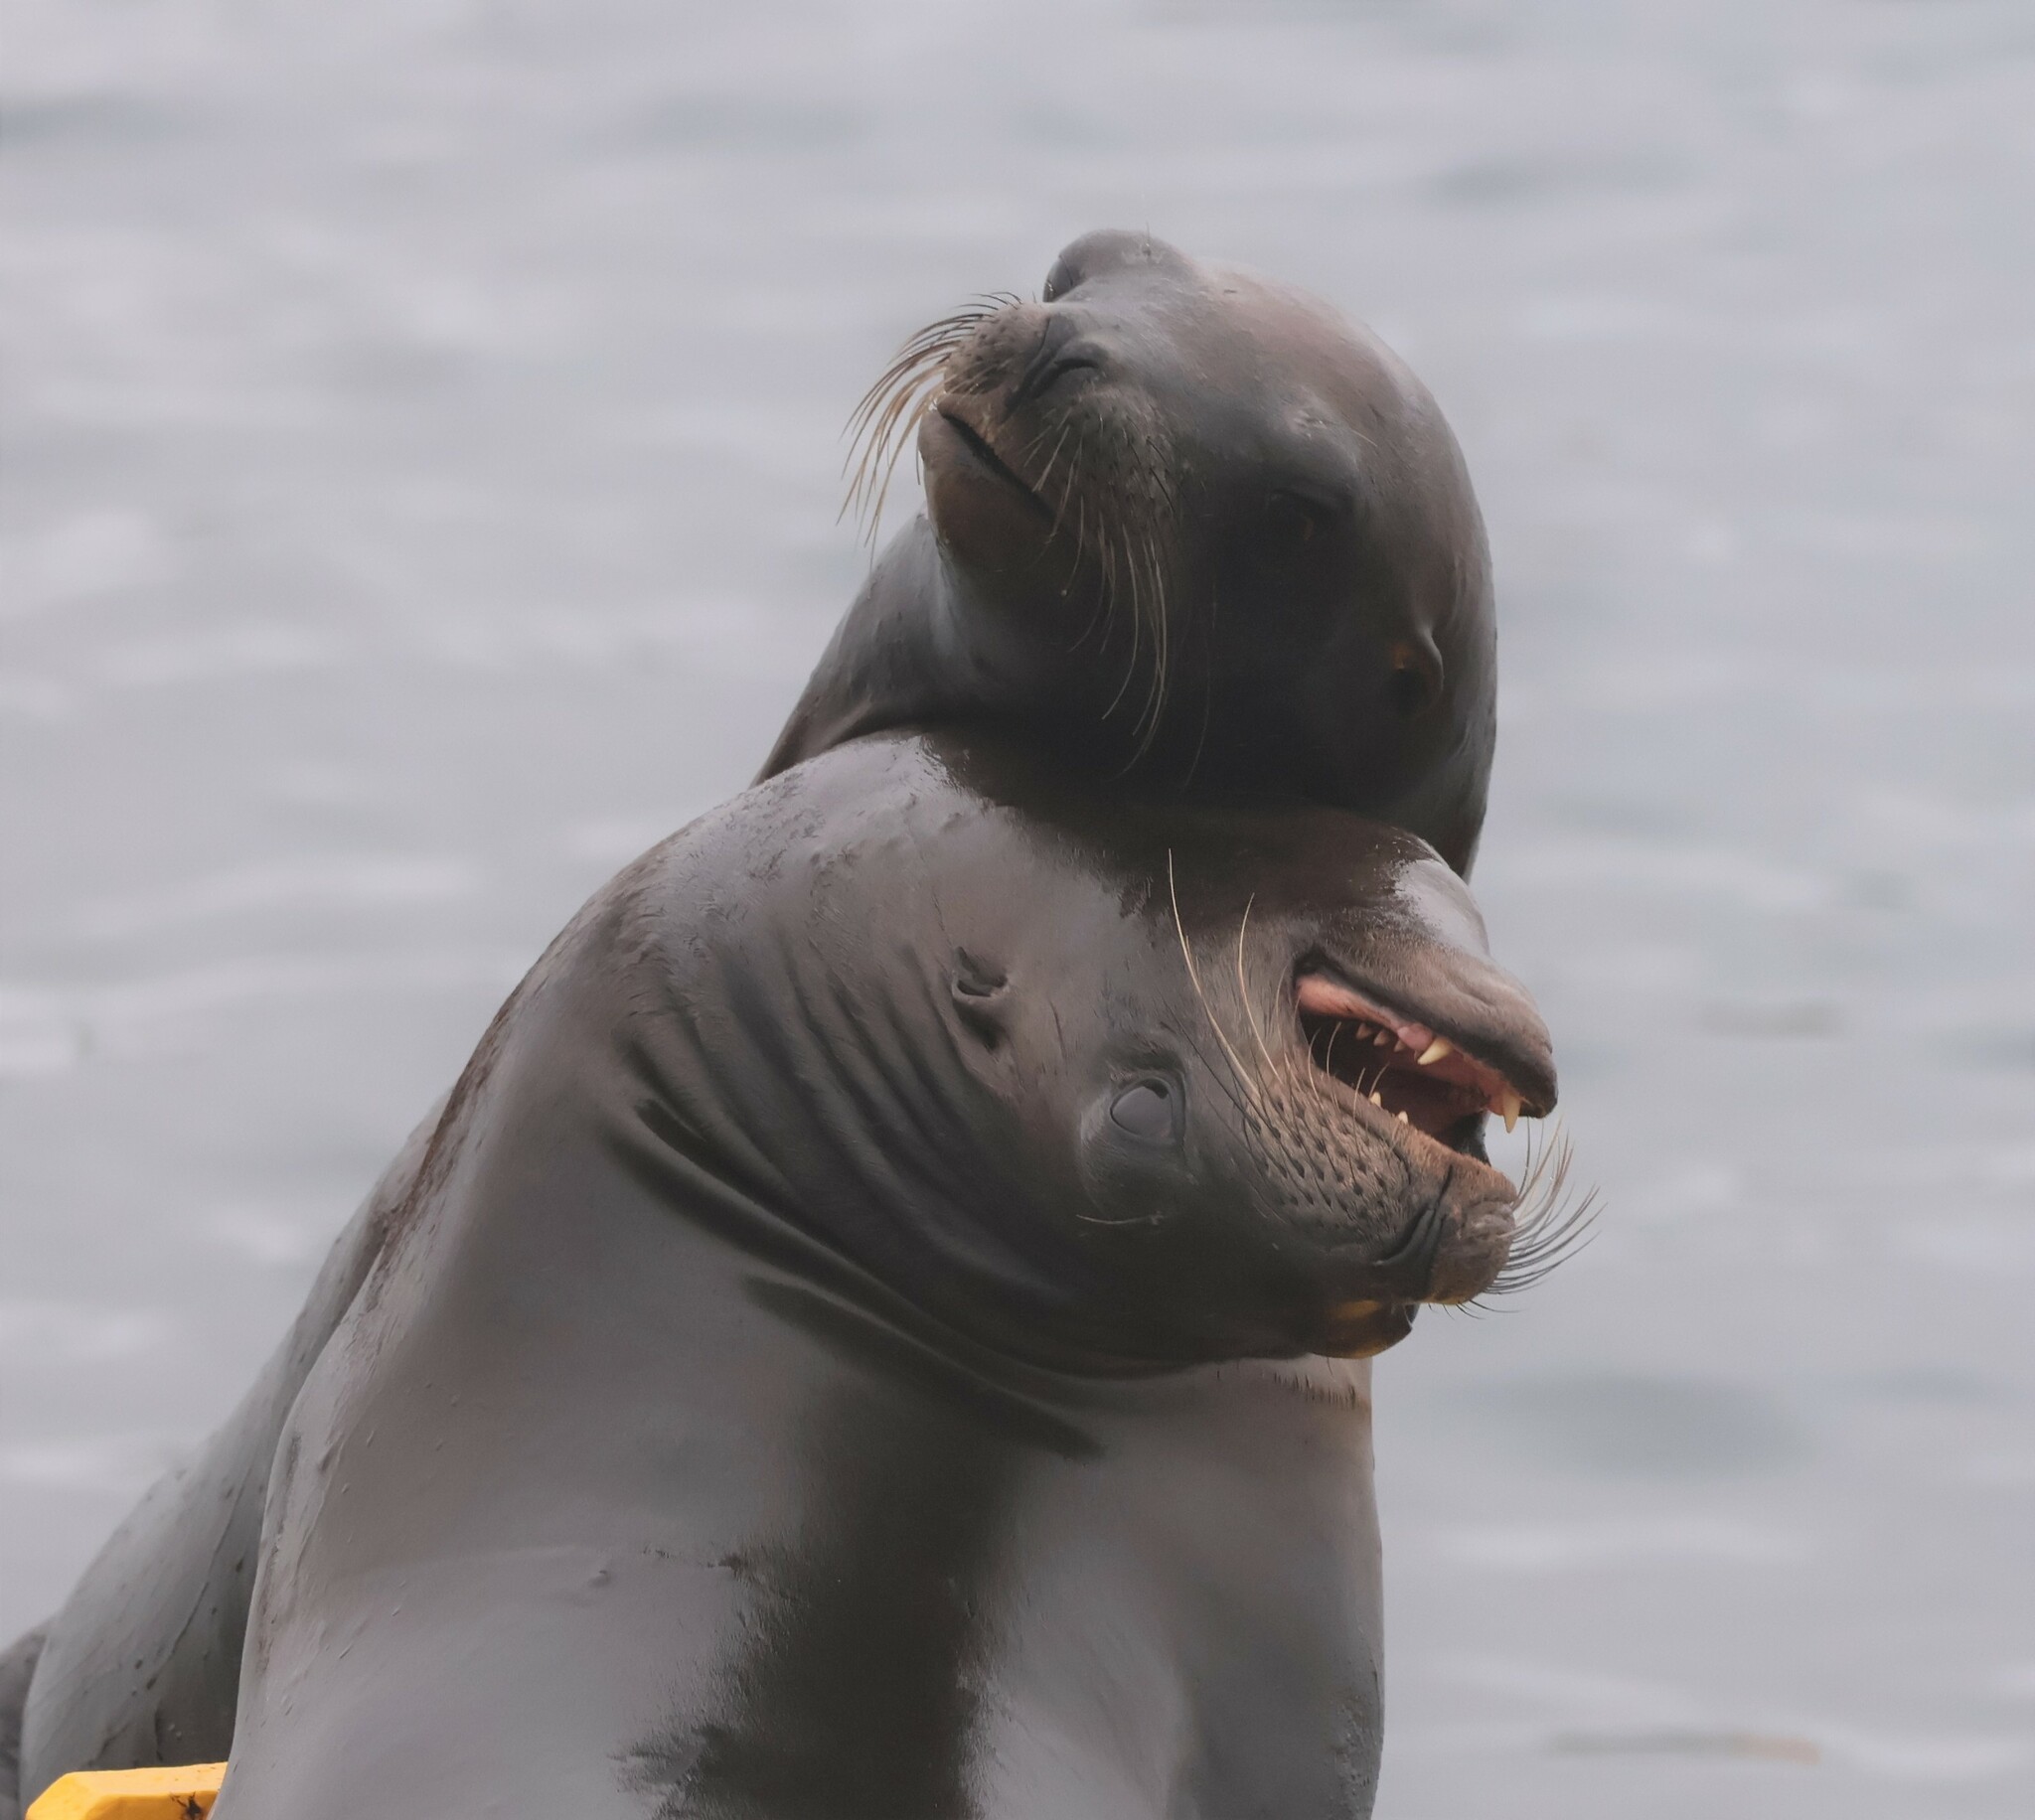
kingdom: Animalia
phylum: Chordata
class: Mammalia
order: Carnivora
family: Otariidae
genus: Zalophus
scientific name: Zalophus californianus
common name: California sea lion
